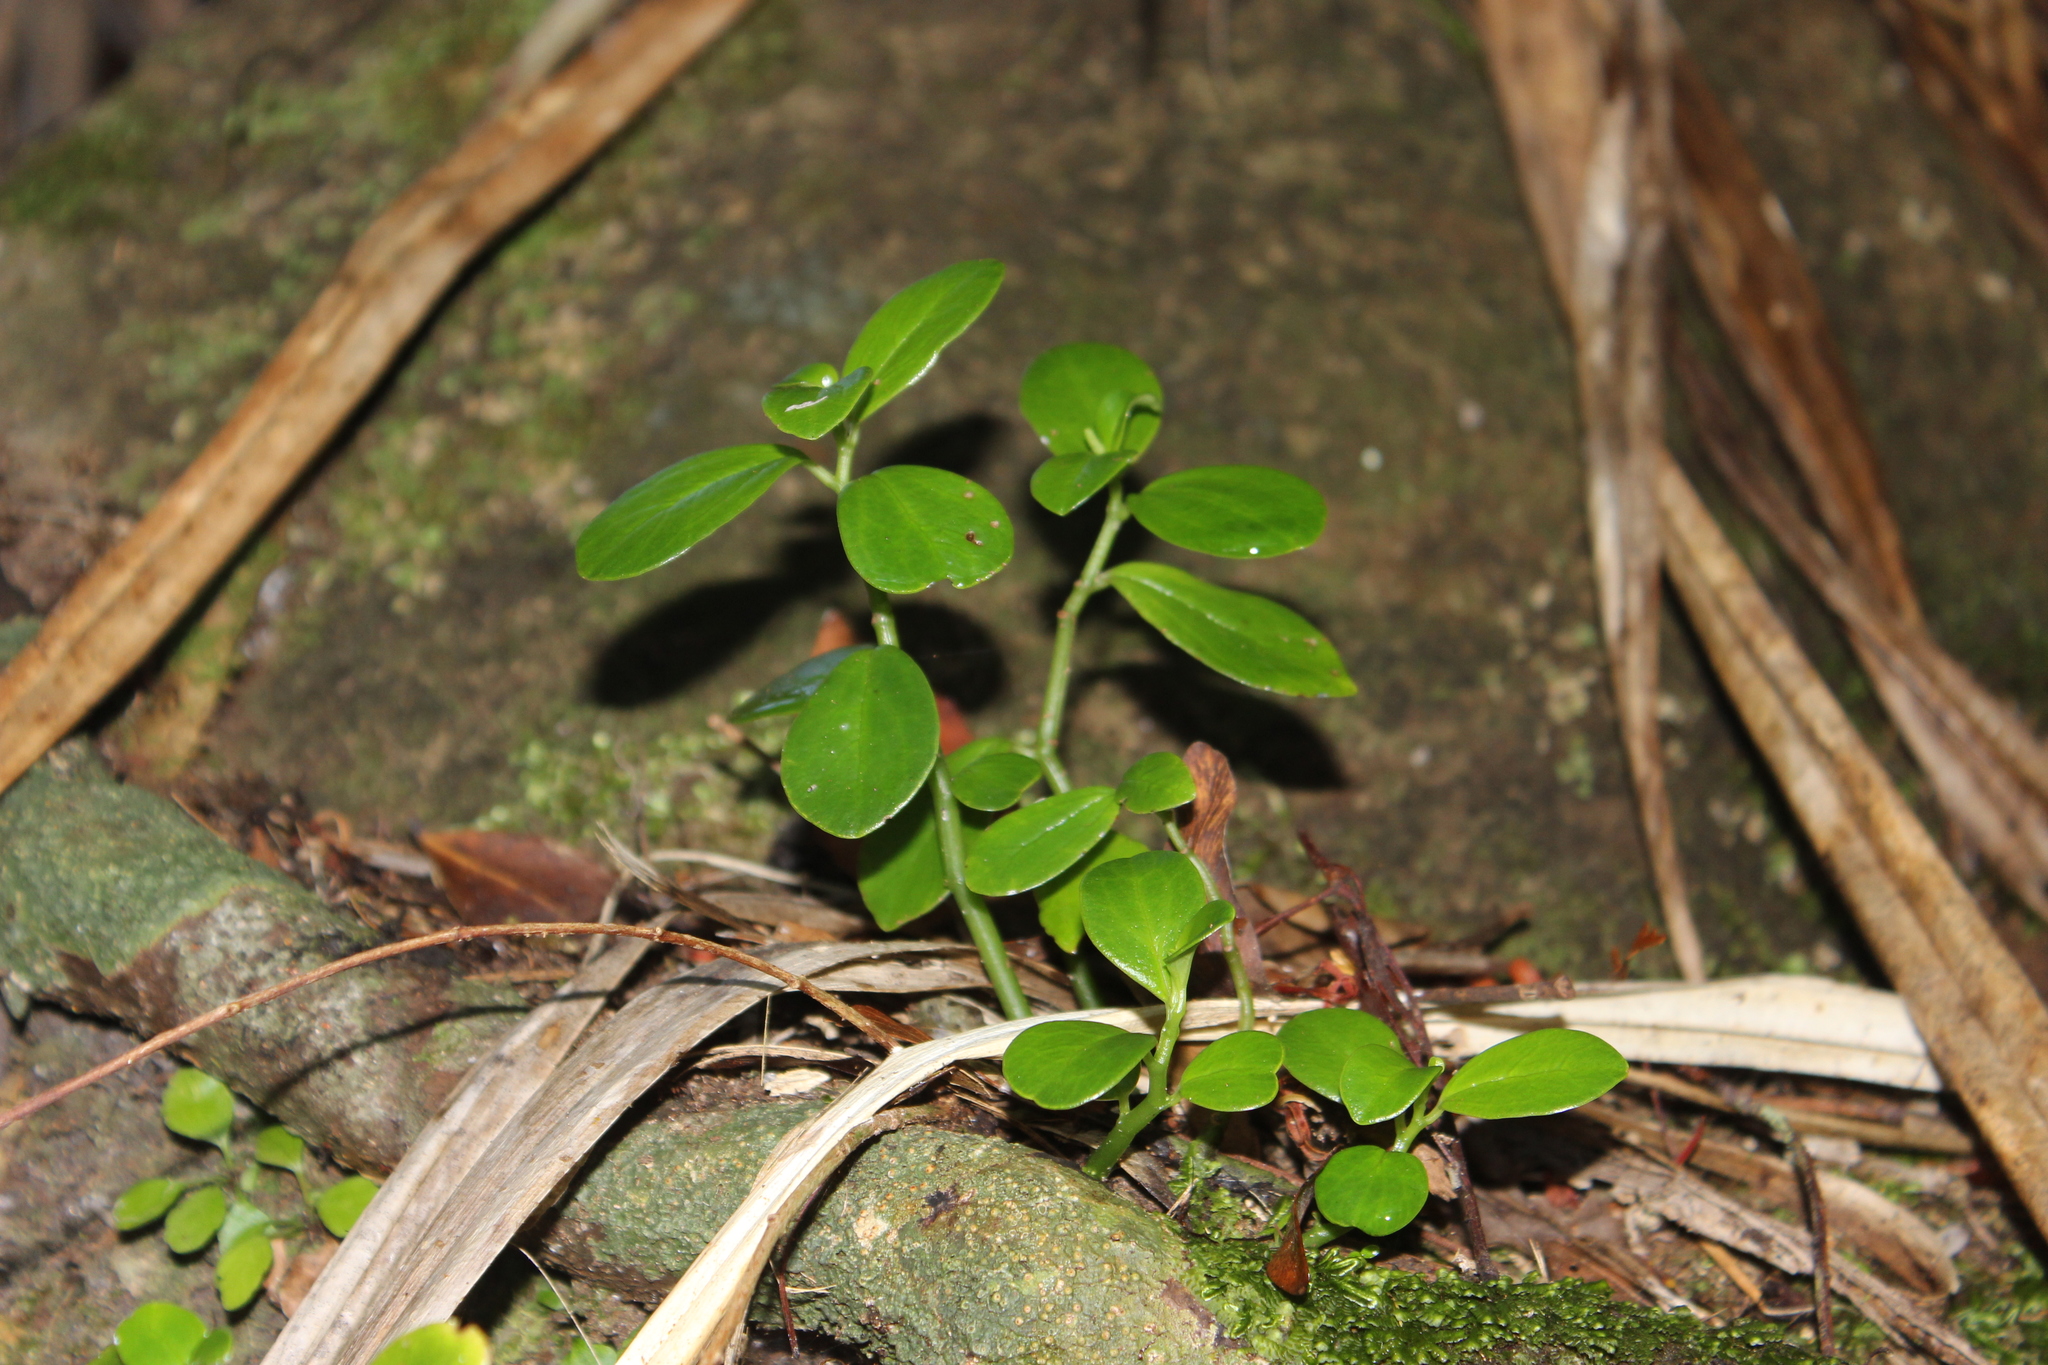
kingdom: Plantae
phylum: Tracheophyta
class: Magnoliopsida
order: Piperales
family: Piperaceae
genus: Peperomia
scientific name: Peperomia urvilleana
